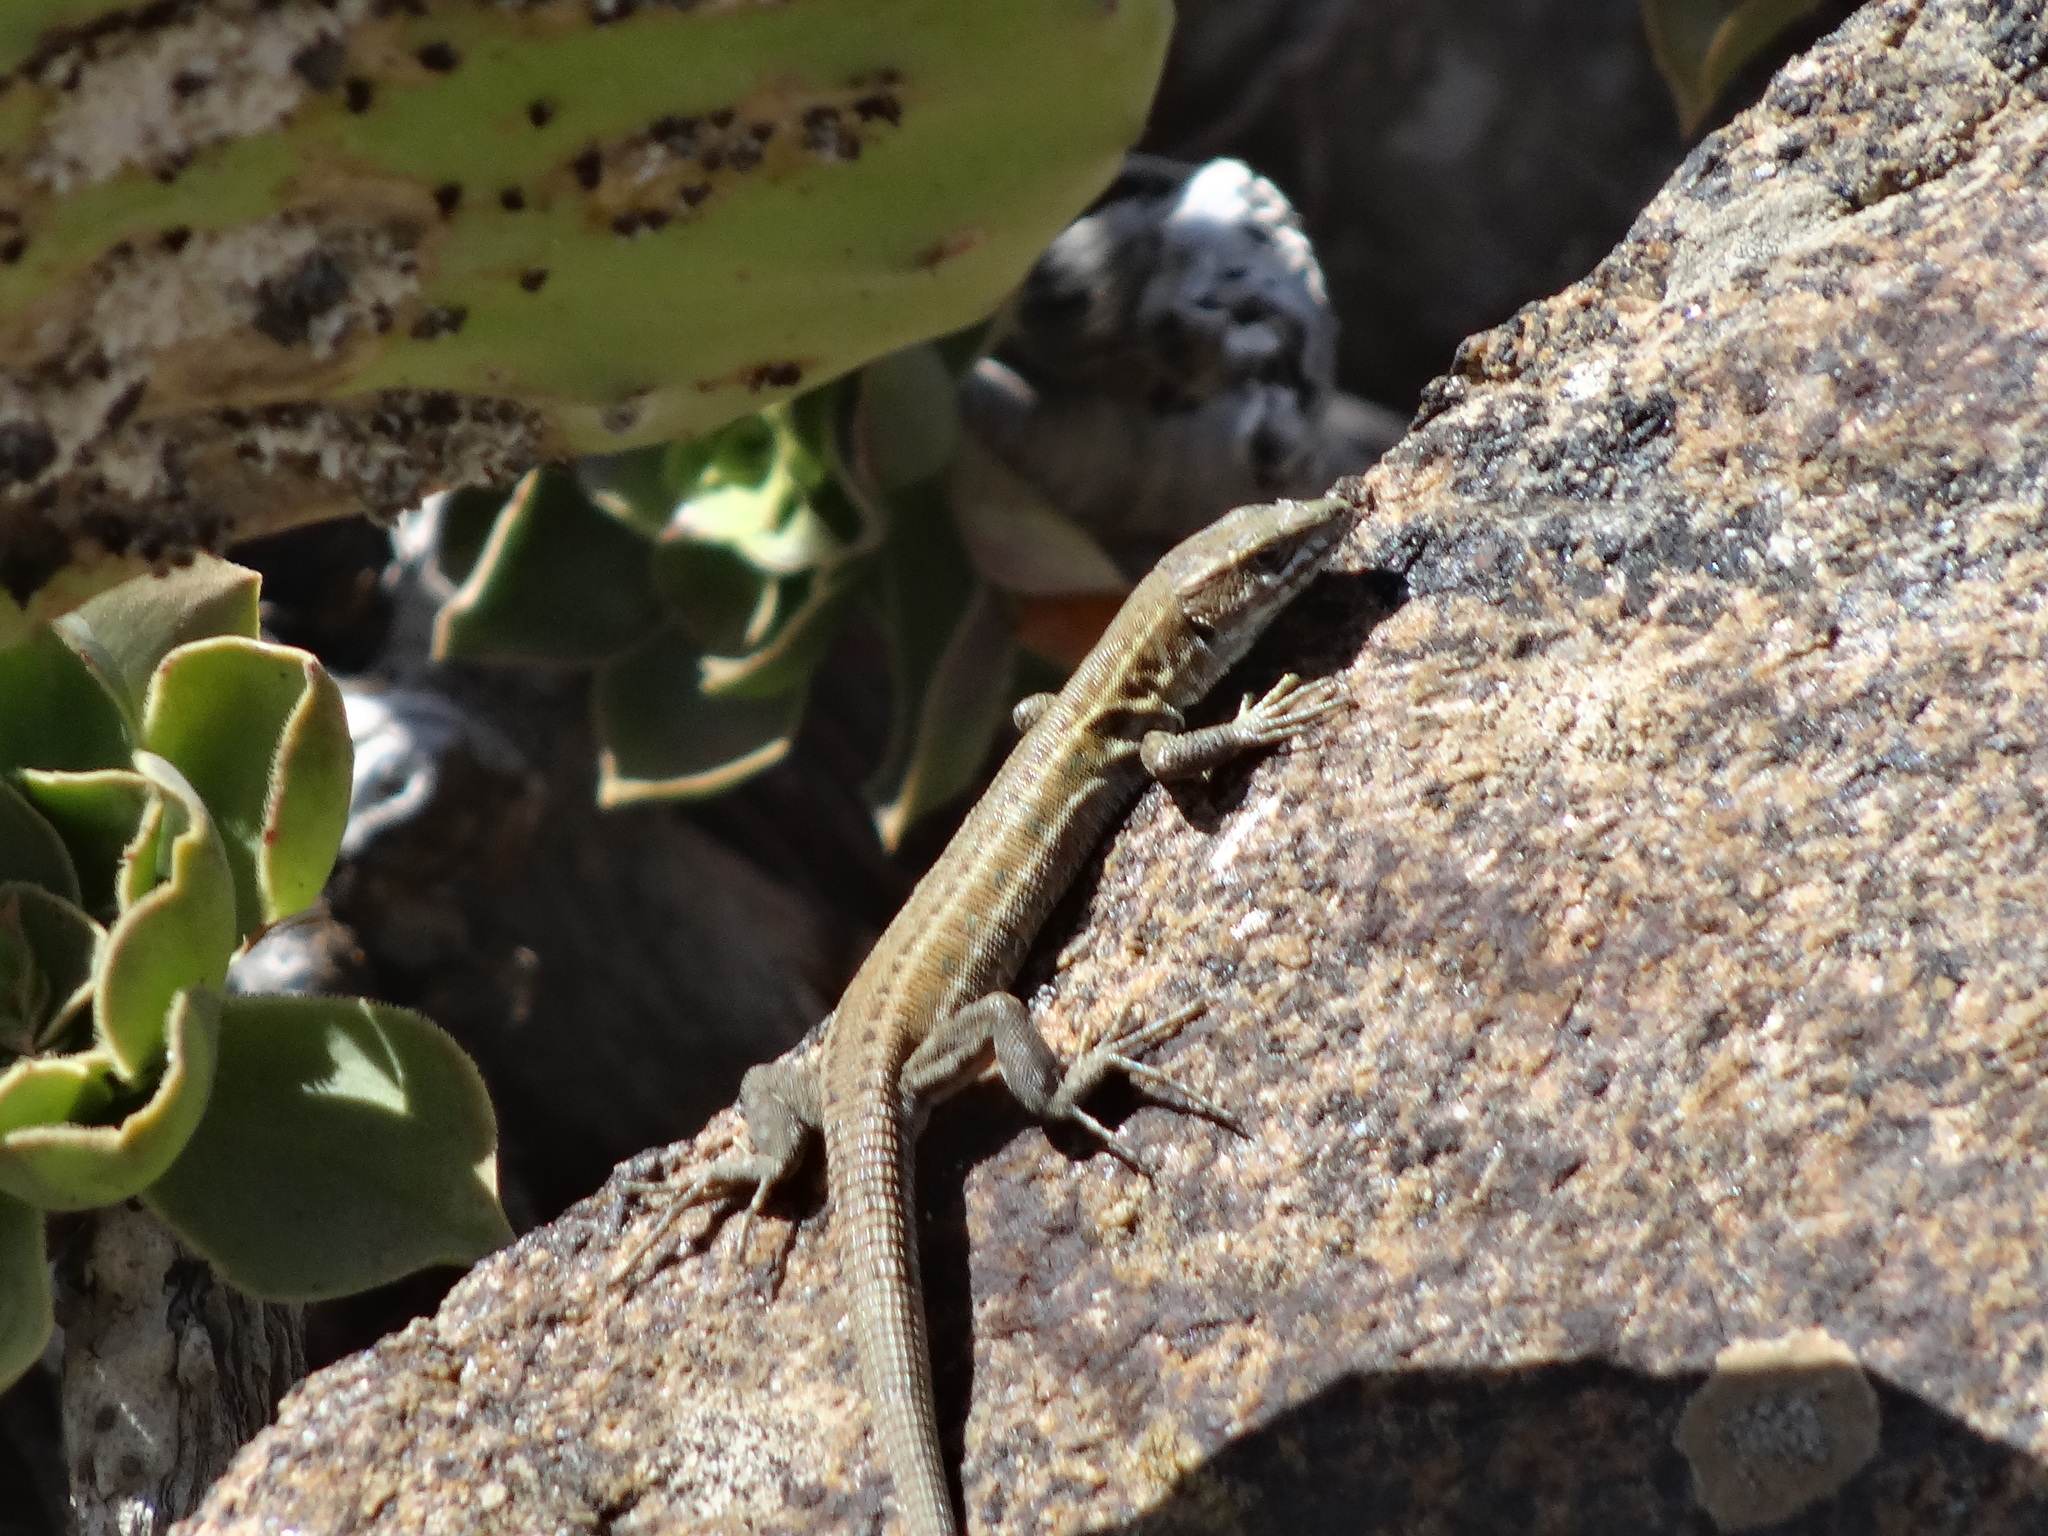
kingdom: Animalia
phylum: Chordata
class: Squamata
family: Lacertidae
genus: Gallotia
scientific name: Gallotia atlantica
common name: Atlantic lizard
